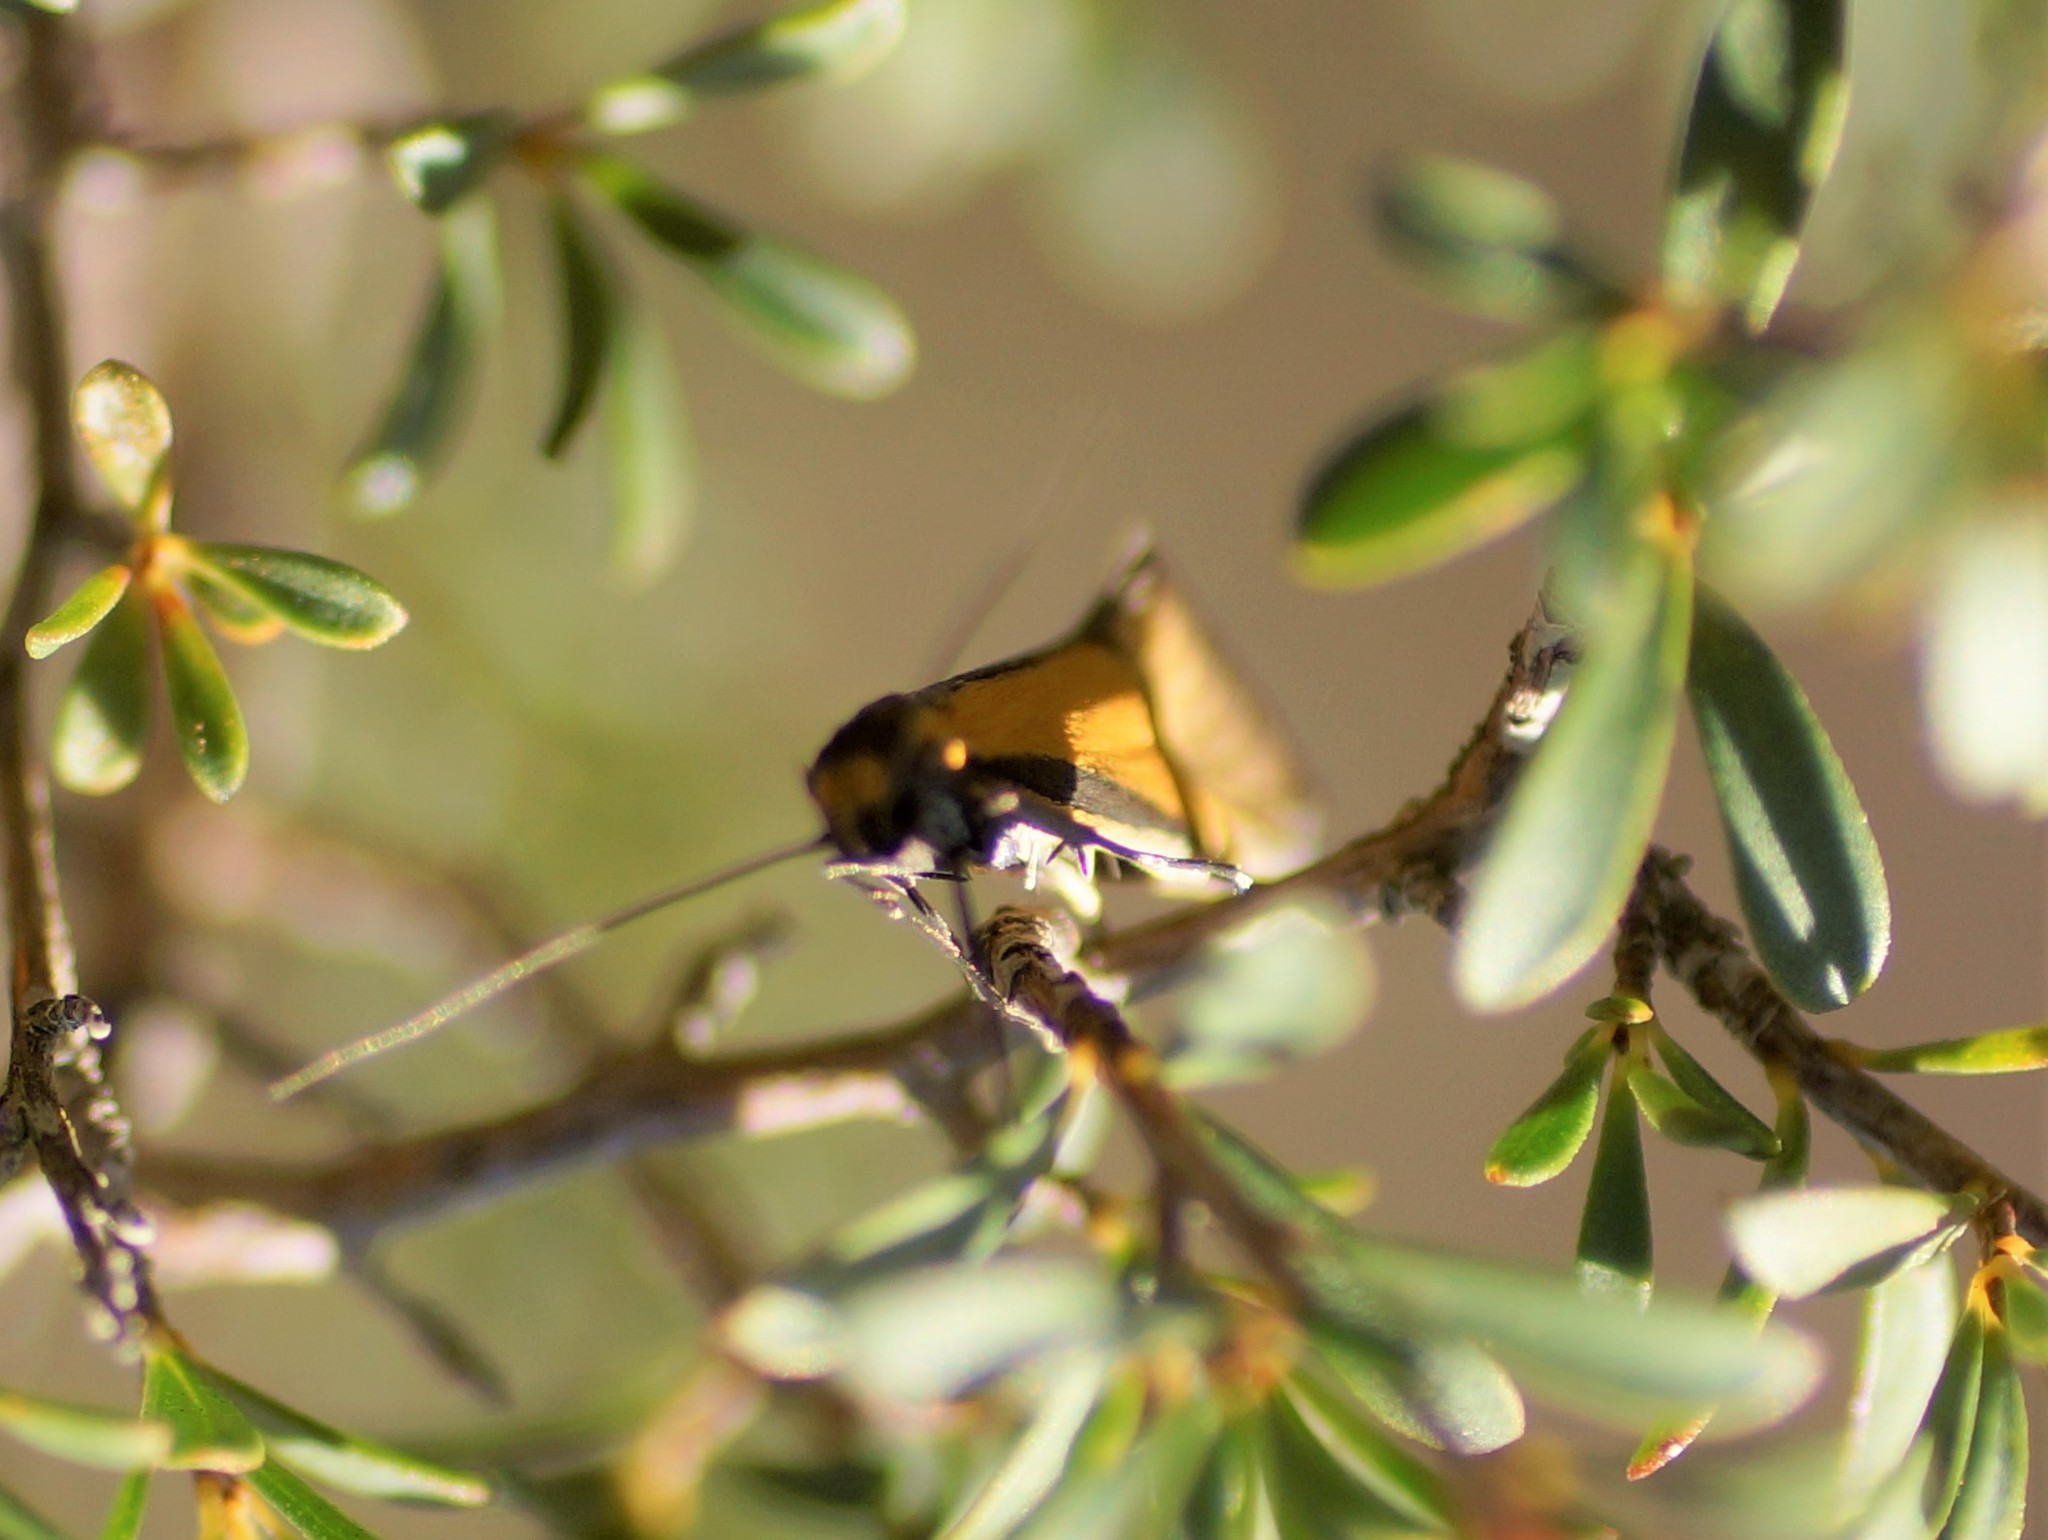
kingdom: Animalia
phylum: Arthropoda
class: Insecta
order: Lepidoptera
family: Oecophoridae
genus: Philobota
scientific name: Philobota arabella
